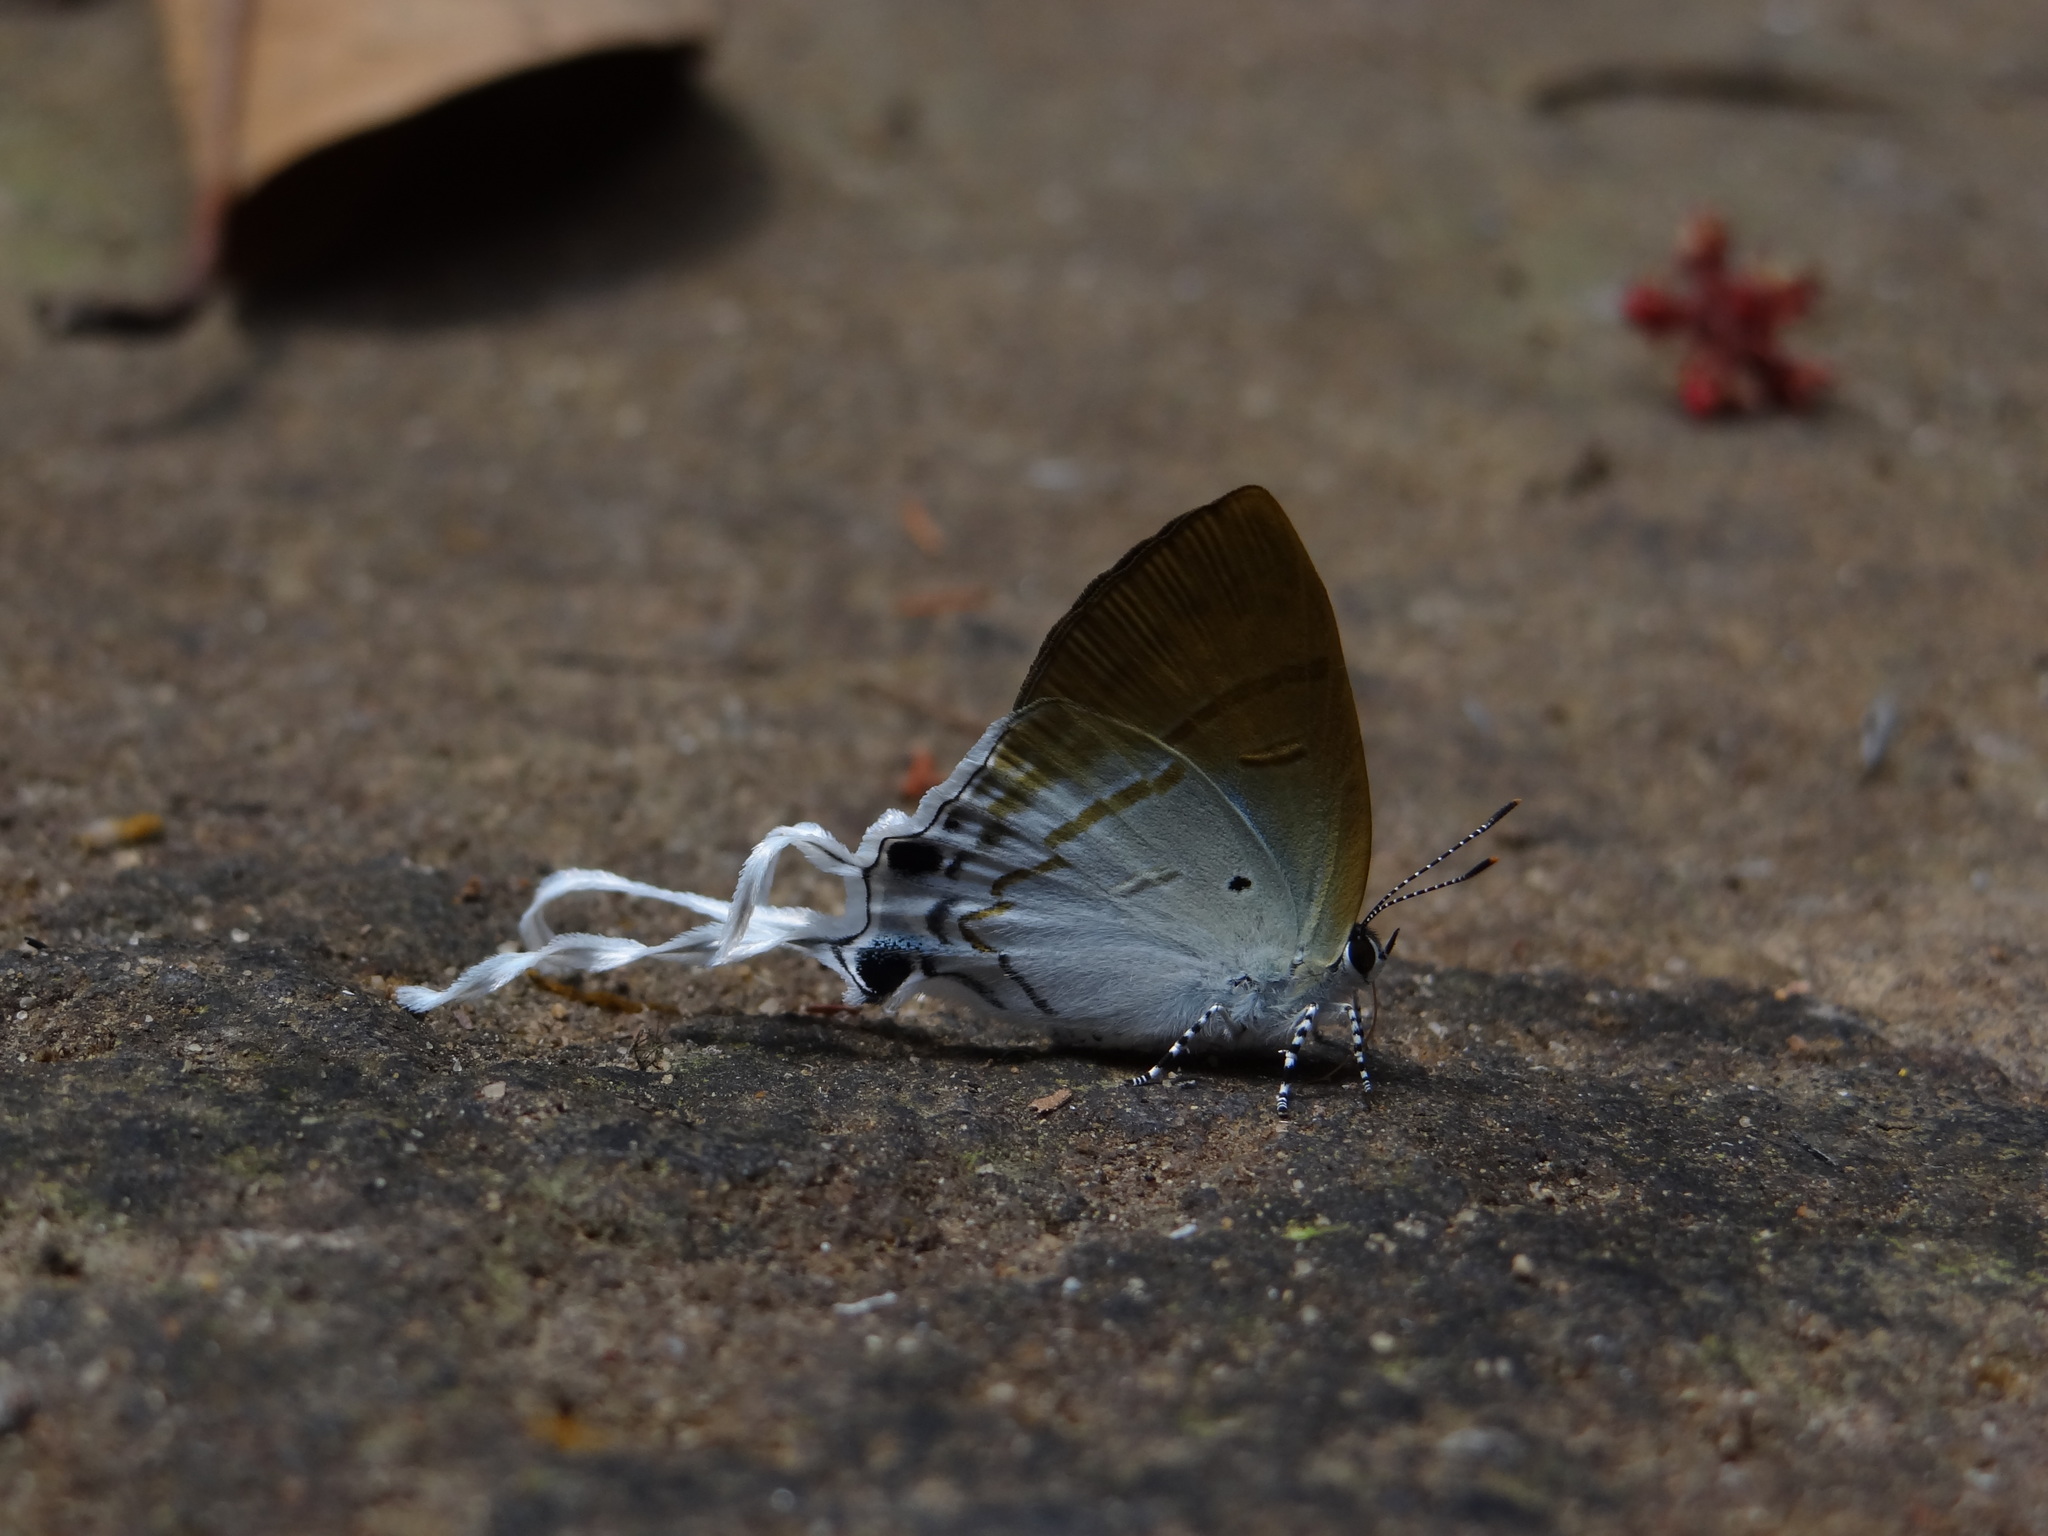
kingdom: Animalia
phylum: Arthropoda
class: Insecta
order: Lepidoptera
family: Lycaenidae
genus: Zeltus
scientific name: Zeltus amasa
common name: Fluffy tit
